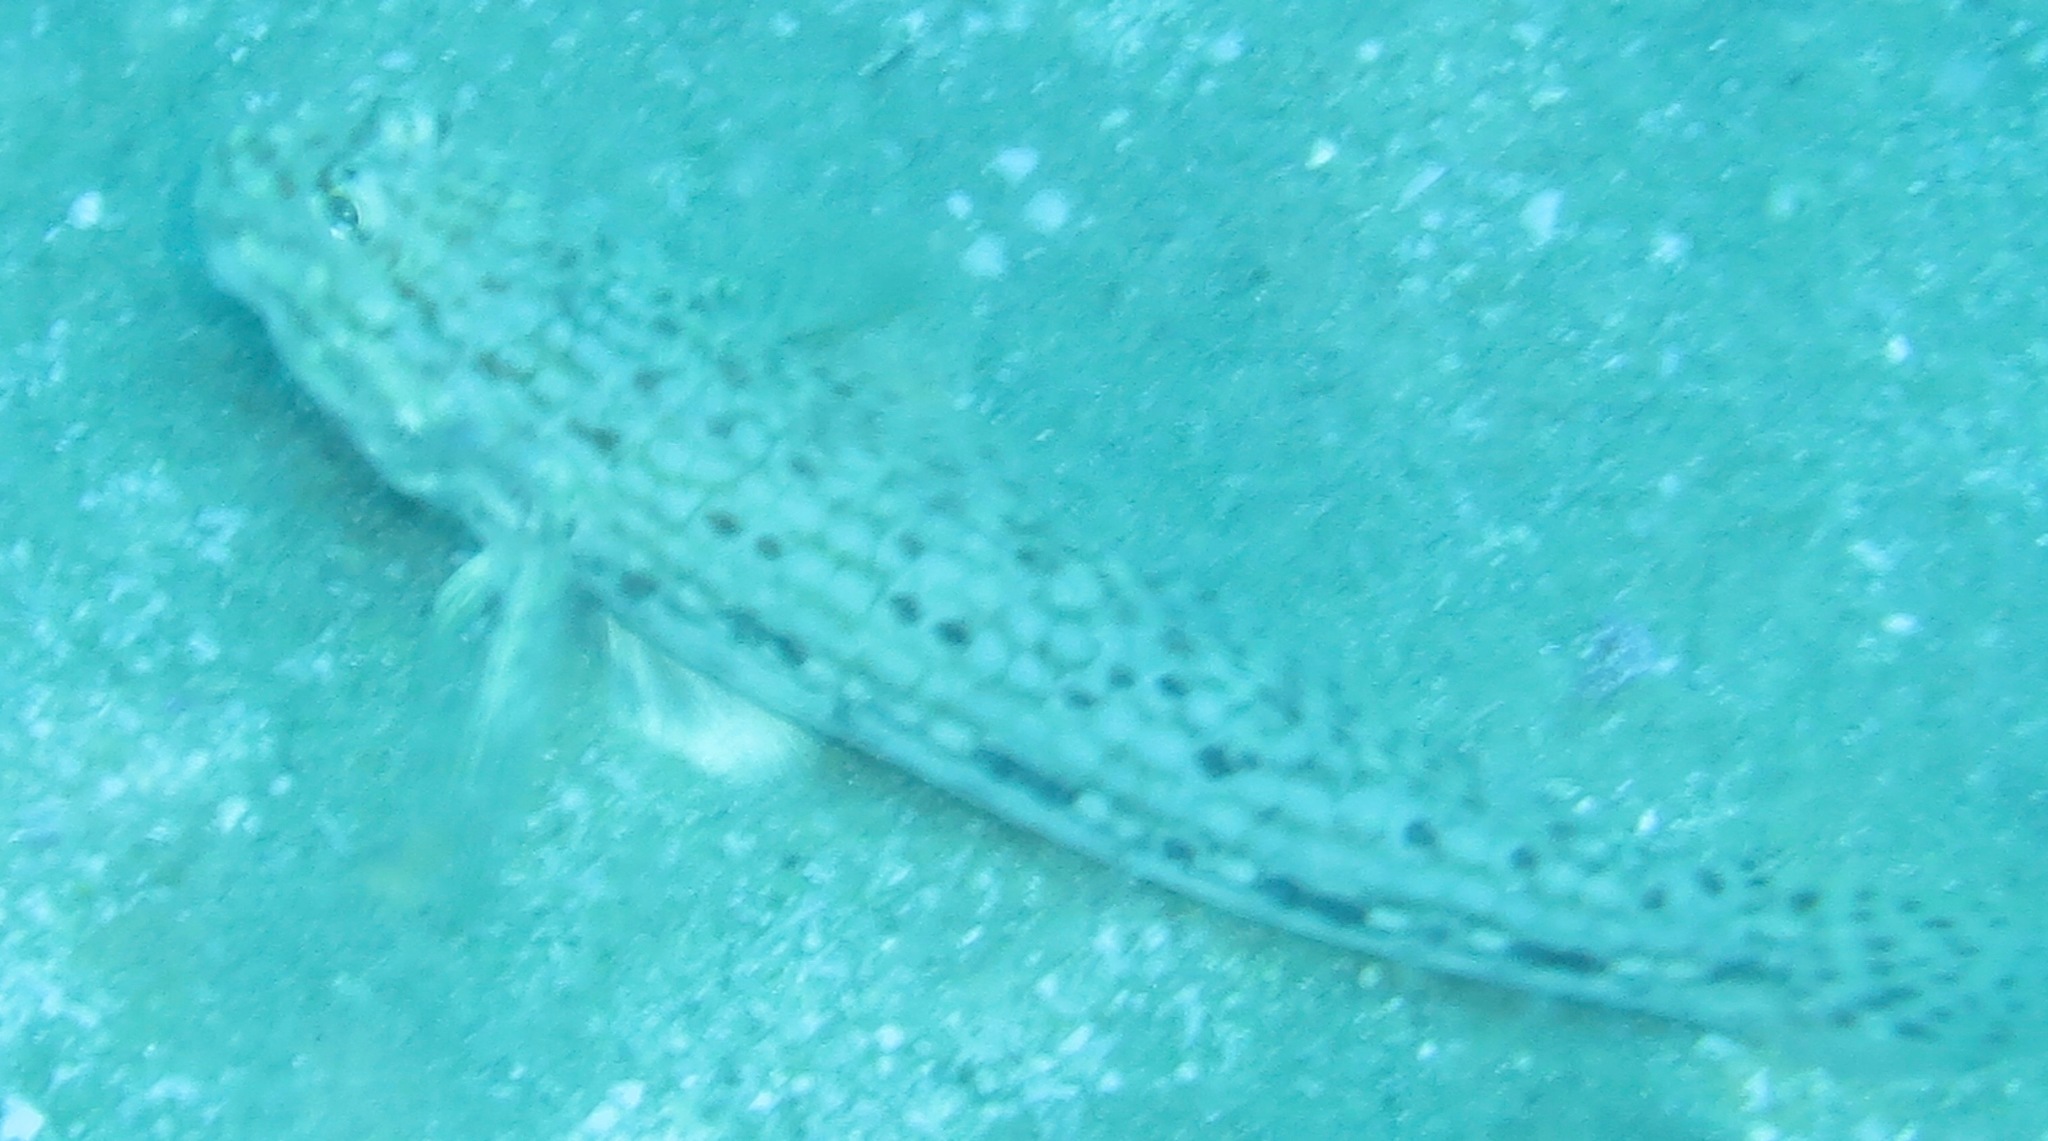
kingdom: Animalia
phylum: Chordata
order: Perciformes
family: Gobiidae
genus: Istigobius
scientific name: Istigobius decoratus
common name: Decorated goby
